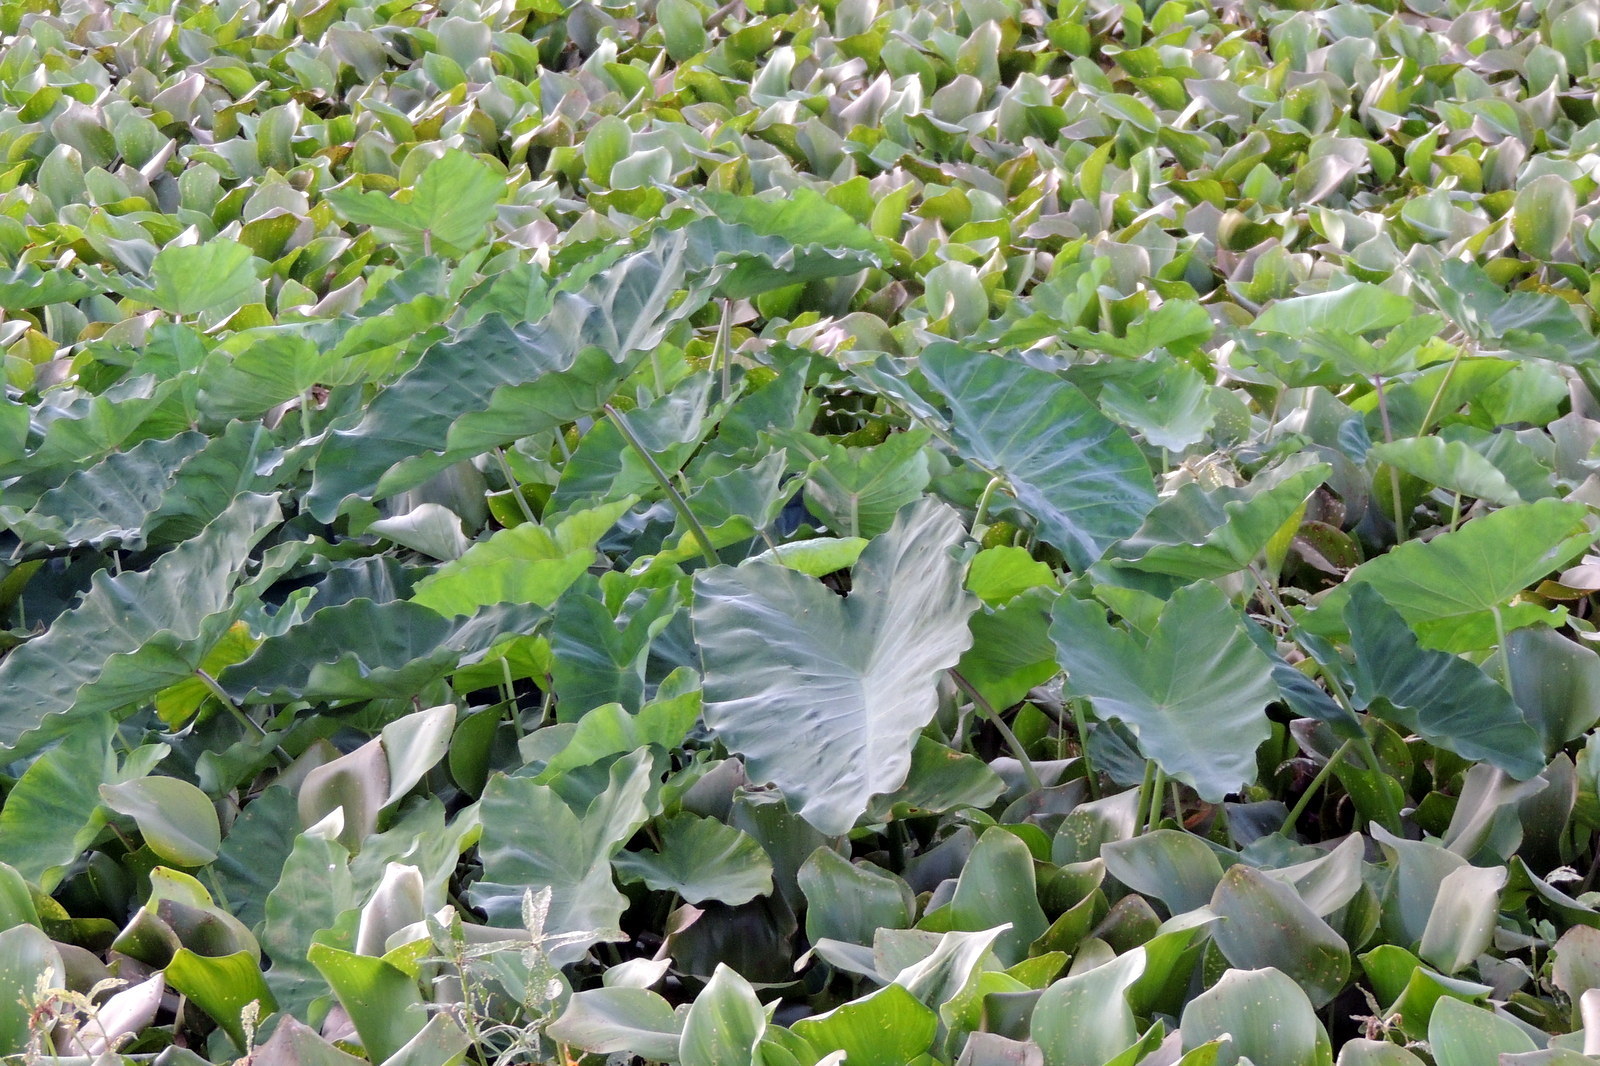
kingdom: Plantae
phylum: Tracheophyta
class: Liliopsida
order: Alismatales
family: Araceae
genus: Colocasia
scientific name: Colocasia esculenta
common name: Taro
